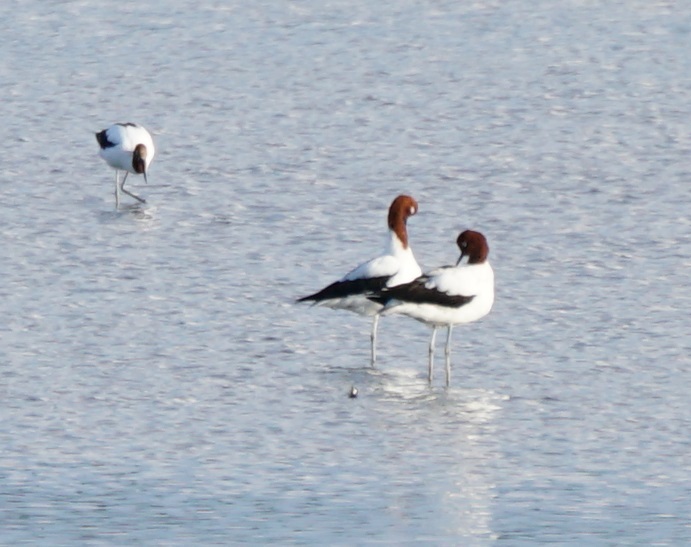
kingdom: Animalia
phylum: Chordata
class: Aves
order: Charadriiformes
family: Recurvirostridae
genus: Recurvirostra
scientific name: Recurvirostra novaehollandiae
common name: Red-necked avocet
